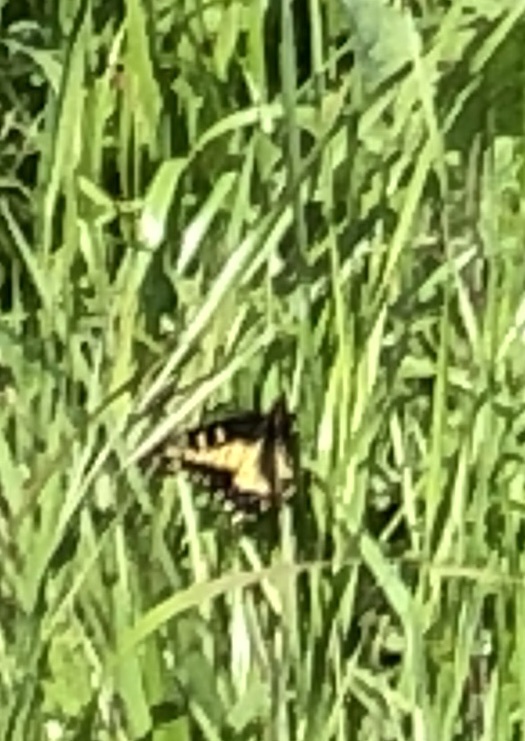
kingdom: Animalia
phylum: Arthropoda
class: Insecta
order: Lepidoptera
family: Papilionidae
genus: Papilio
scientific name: Papilio zelicaon
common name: Anise swallowtail
